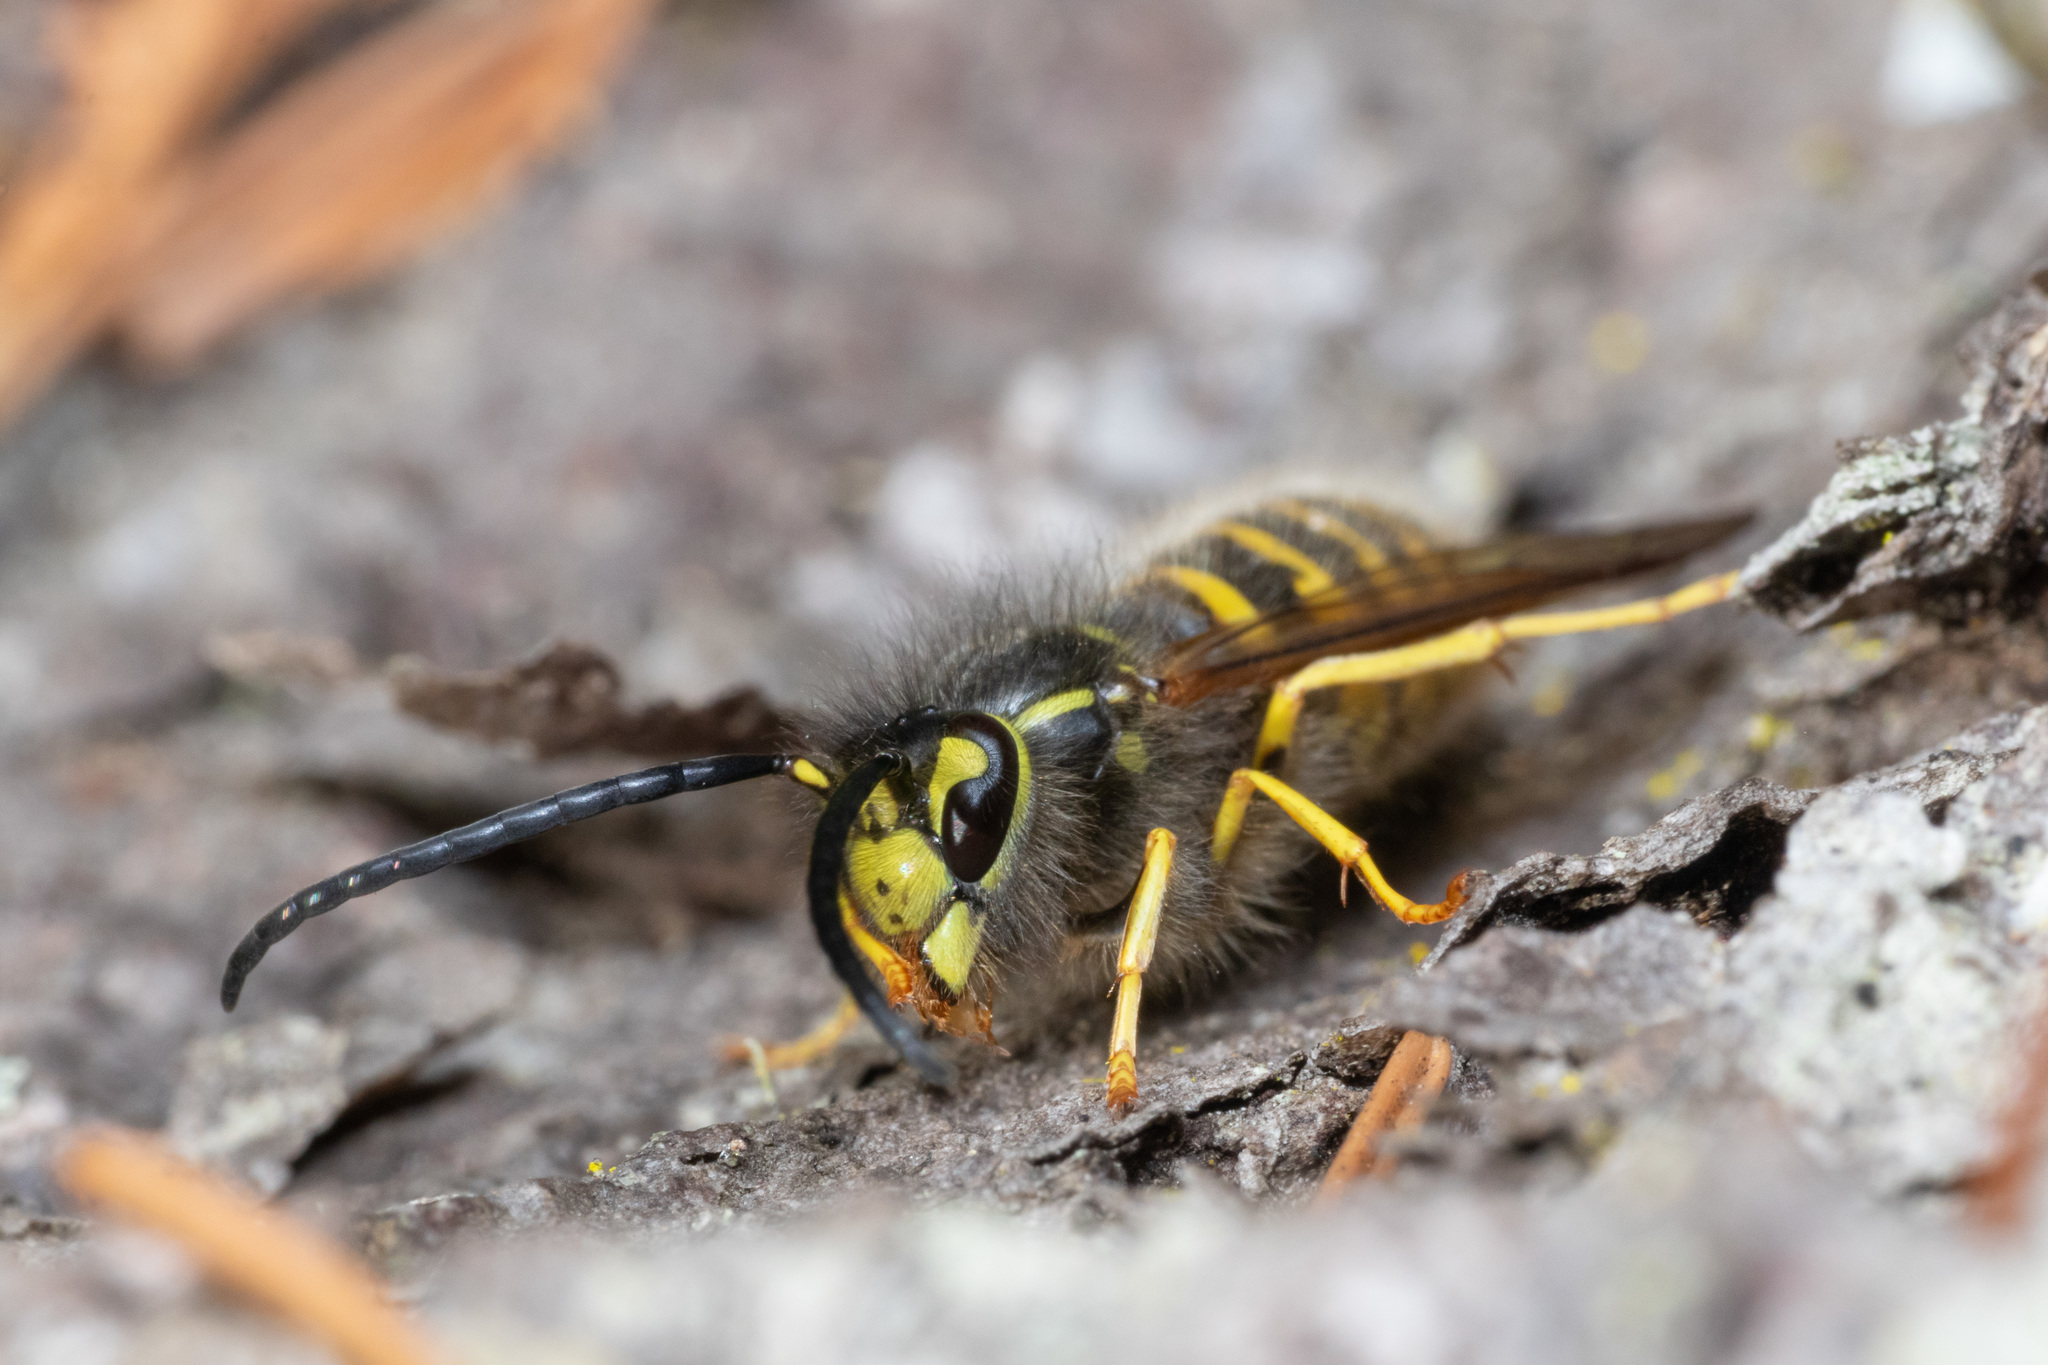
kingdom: Animalia
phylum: Arthropoda
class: Insecta
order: Hymenoptera
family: Vespidae
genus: Vespula
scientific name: Vespula vulgaris
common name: Common wasp
